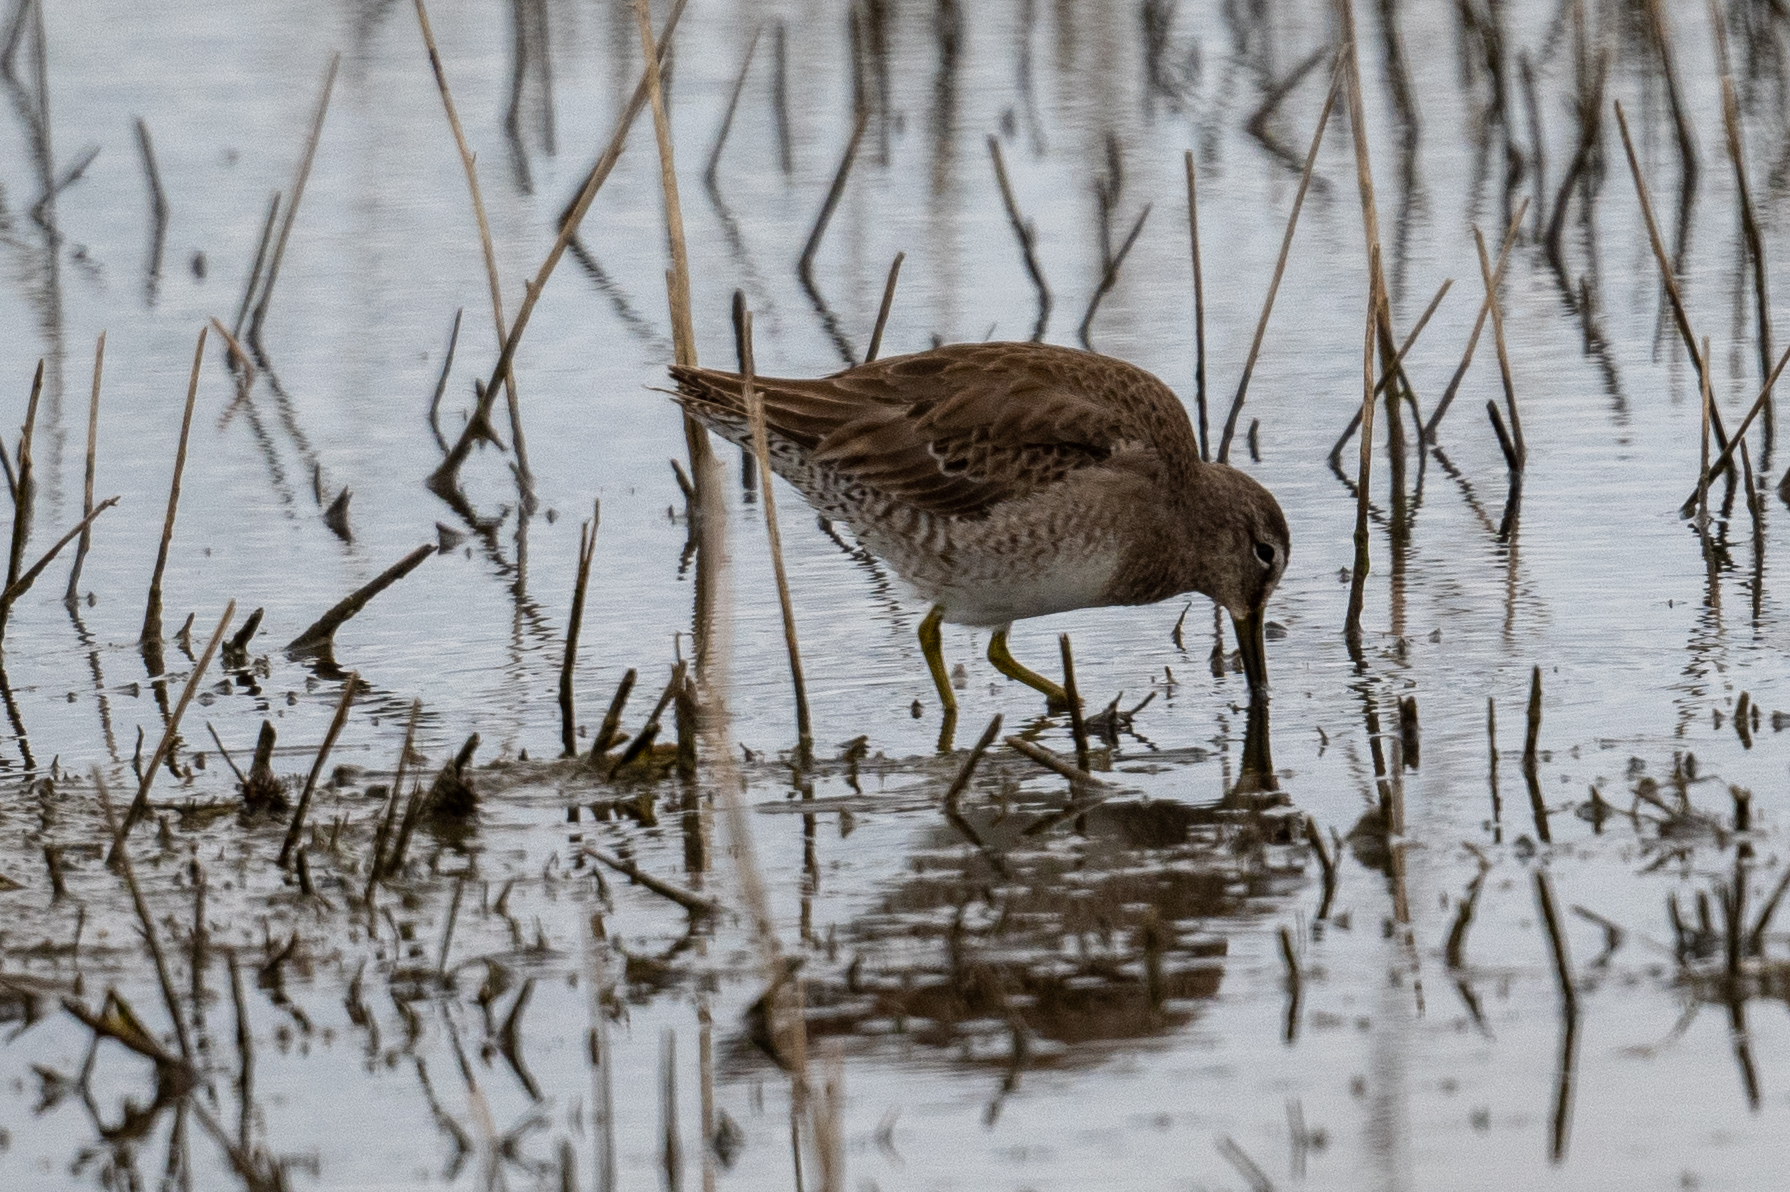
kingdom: Animalia
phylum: Chordata
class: Aves
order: Charadriiformes
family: Scolopacidae
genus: Limnodromus
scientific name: Limnodromus scolopaceus
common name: Long-billed dowitcher
